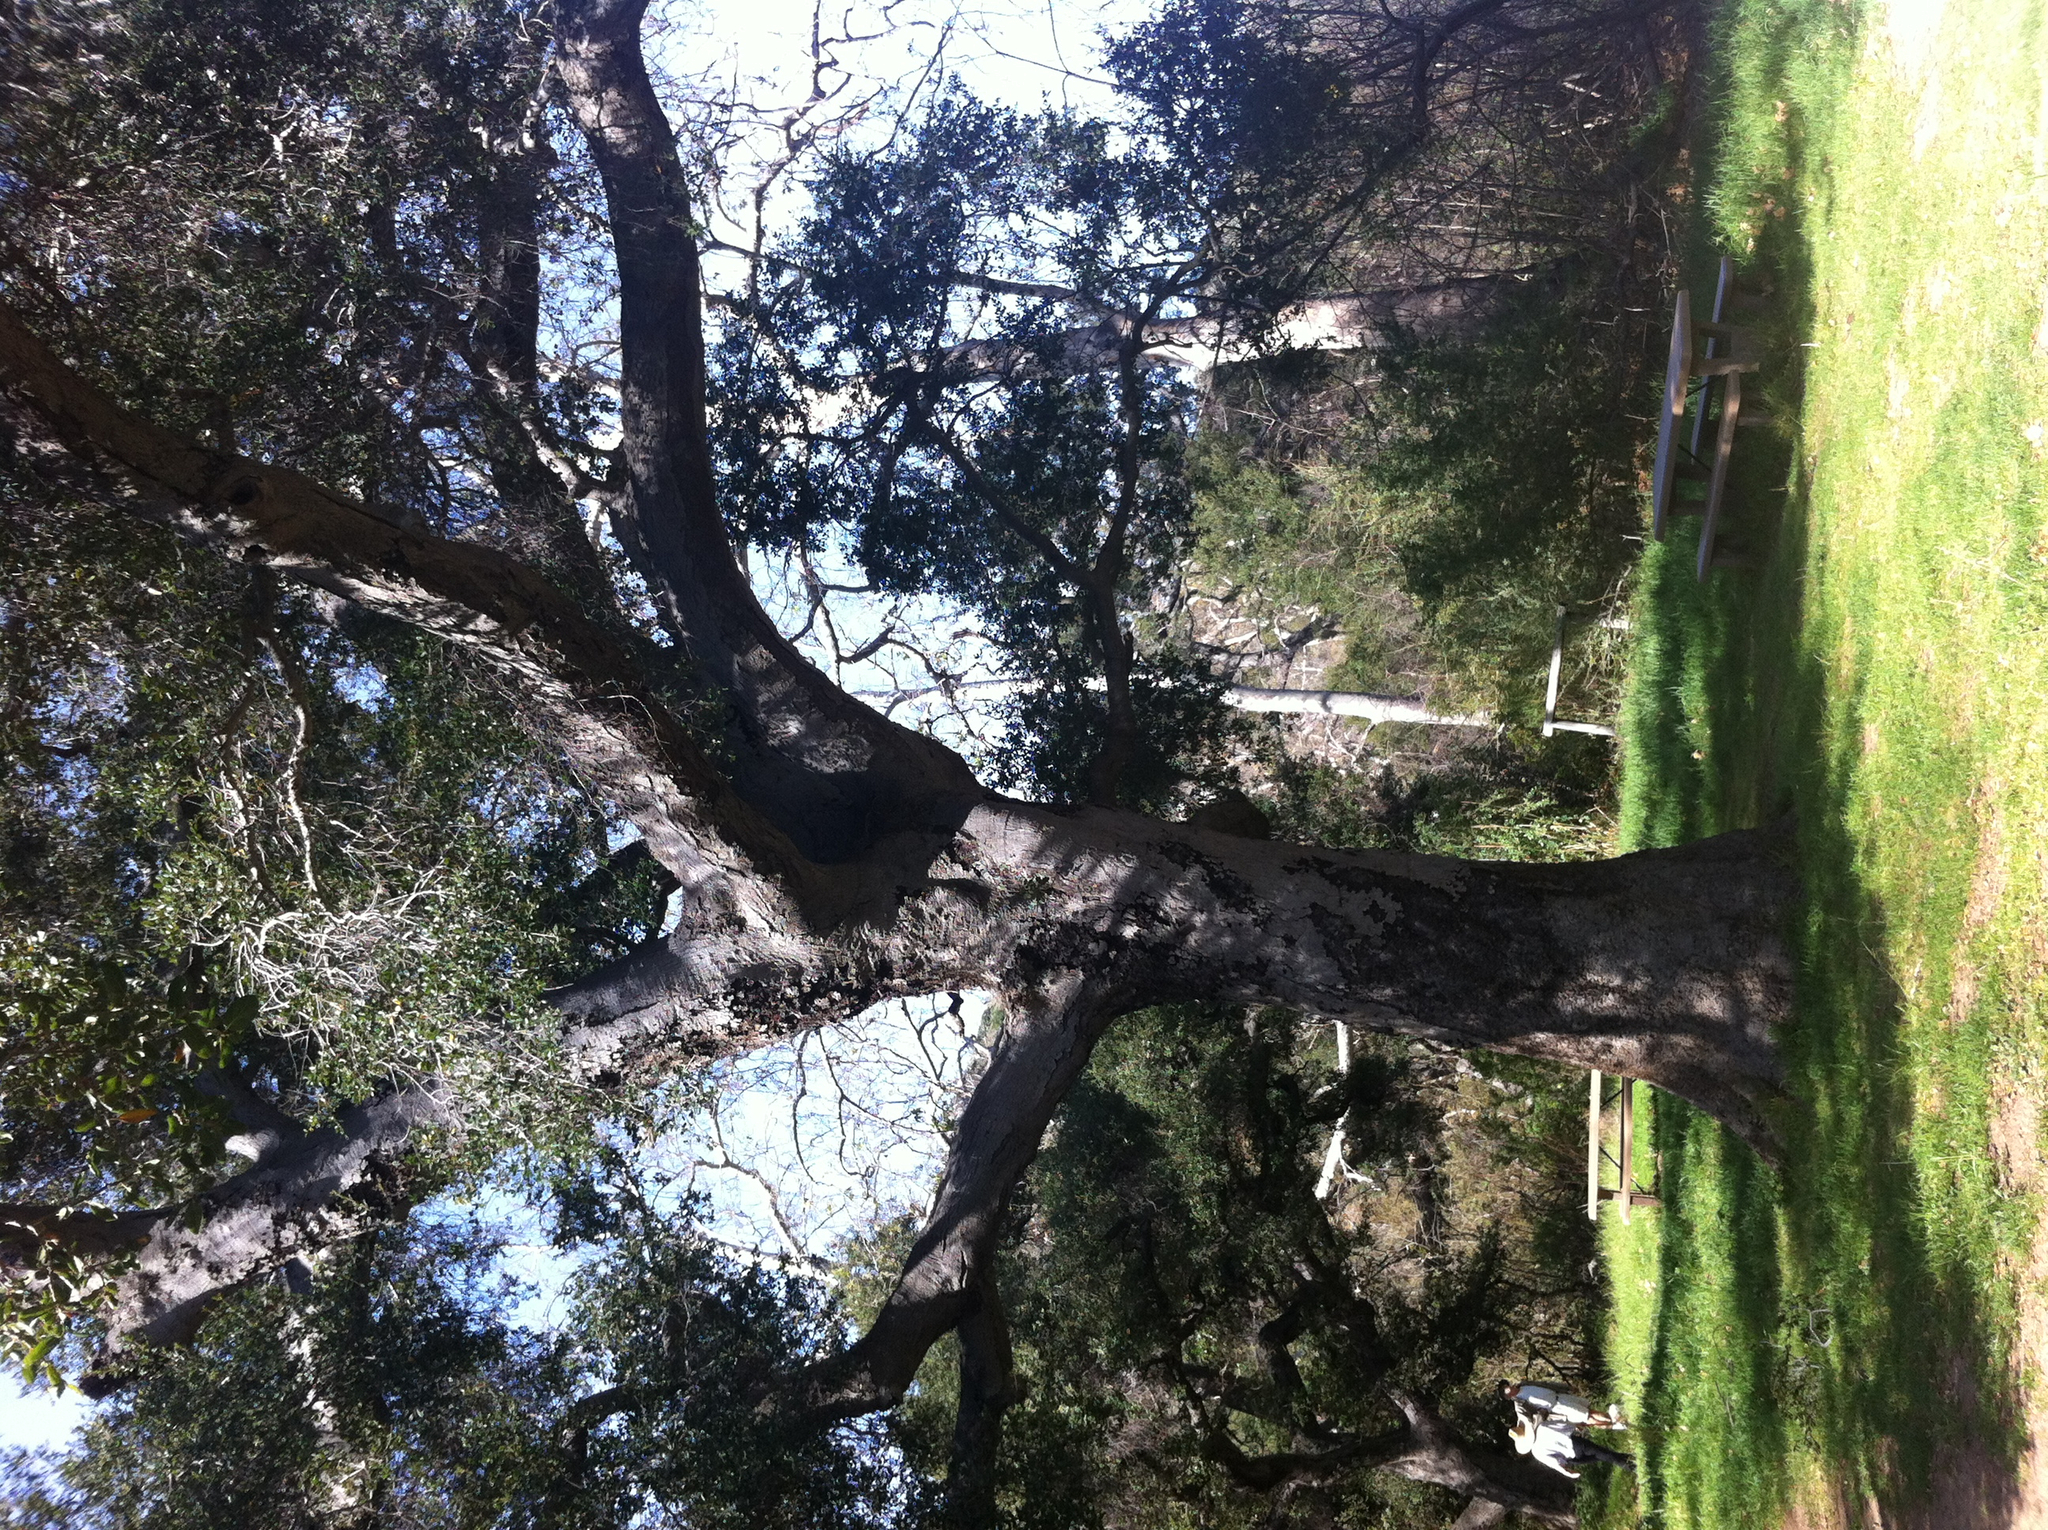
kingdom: Plantae
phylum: Tracheophyta
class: Magnoliopsida
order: Fagales
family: Fagaceae
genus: Quercus
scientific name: Quercus agrifolia
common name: California live oak
